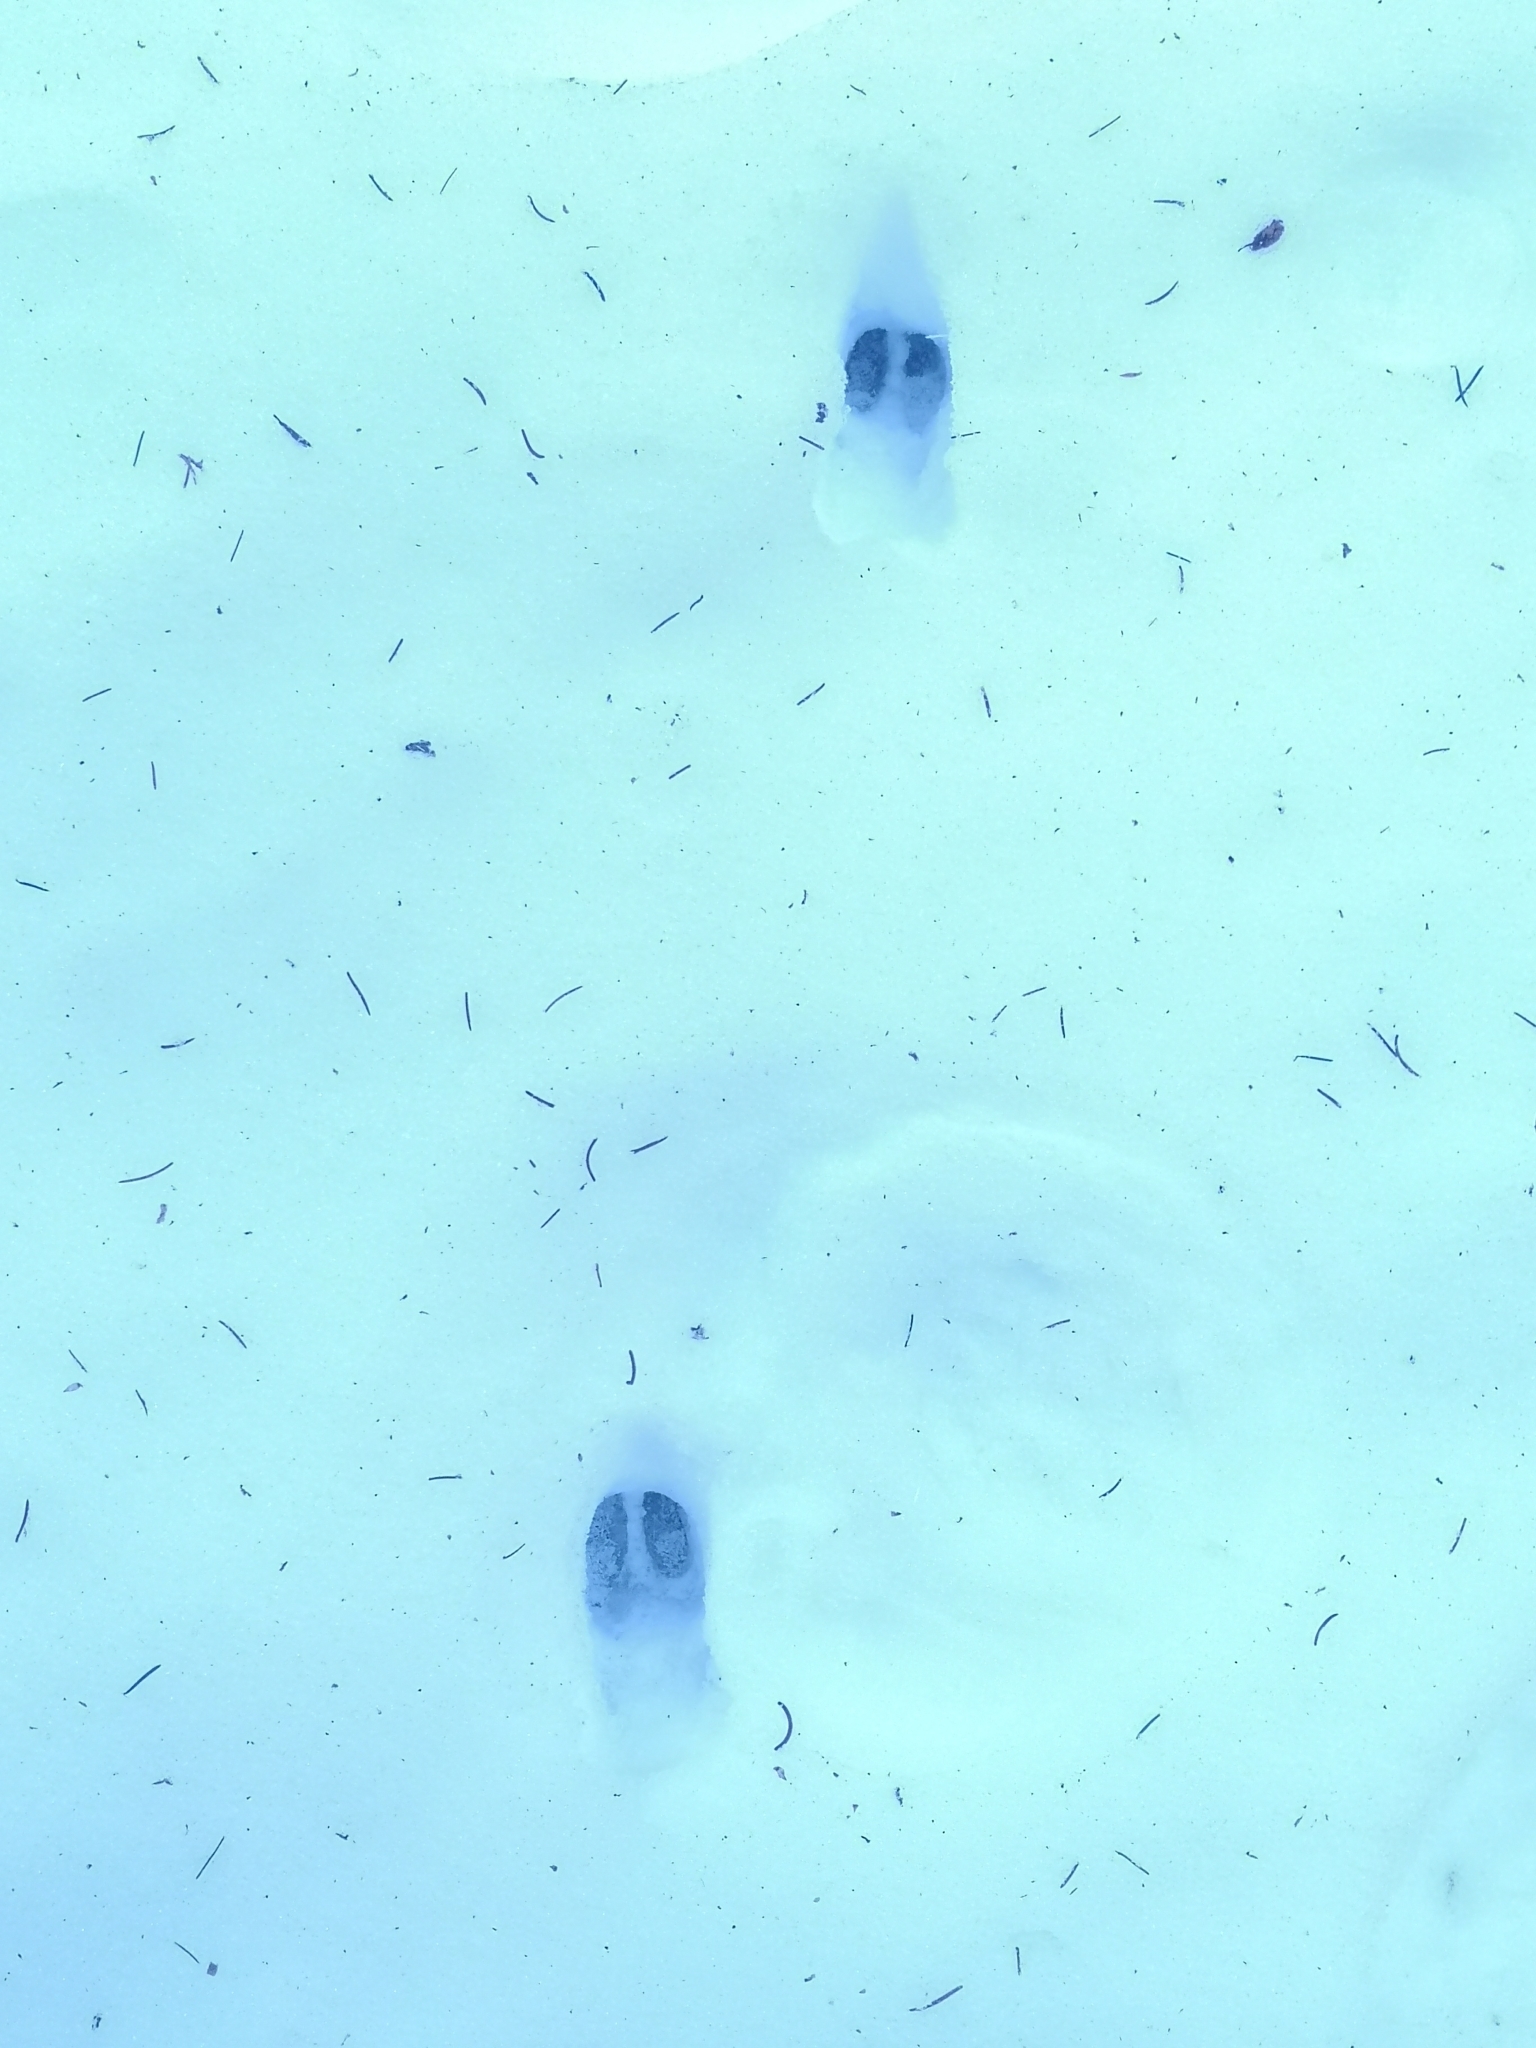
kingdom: Animalia
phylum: Chordata
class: Mammalia
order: Artiodactyla
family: Cervidae
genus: Capreolus
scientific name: Capreolus capreolus
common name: Western roe deer
